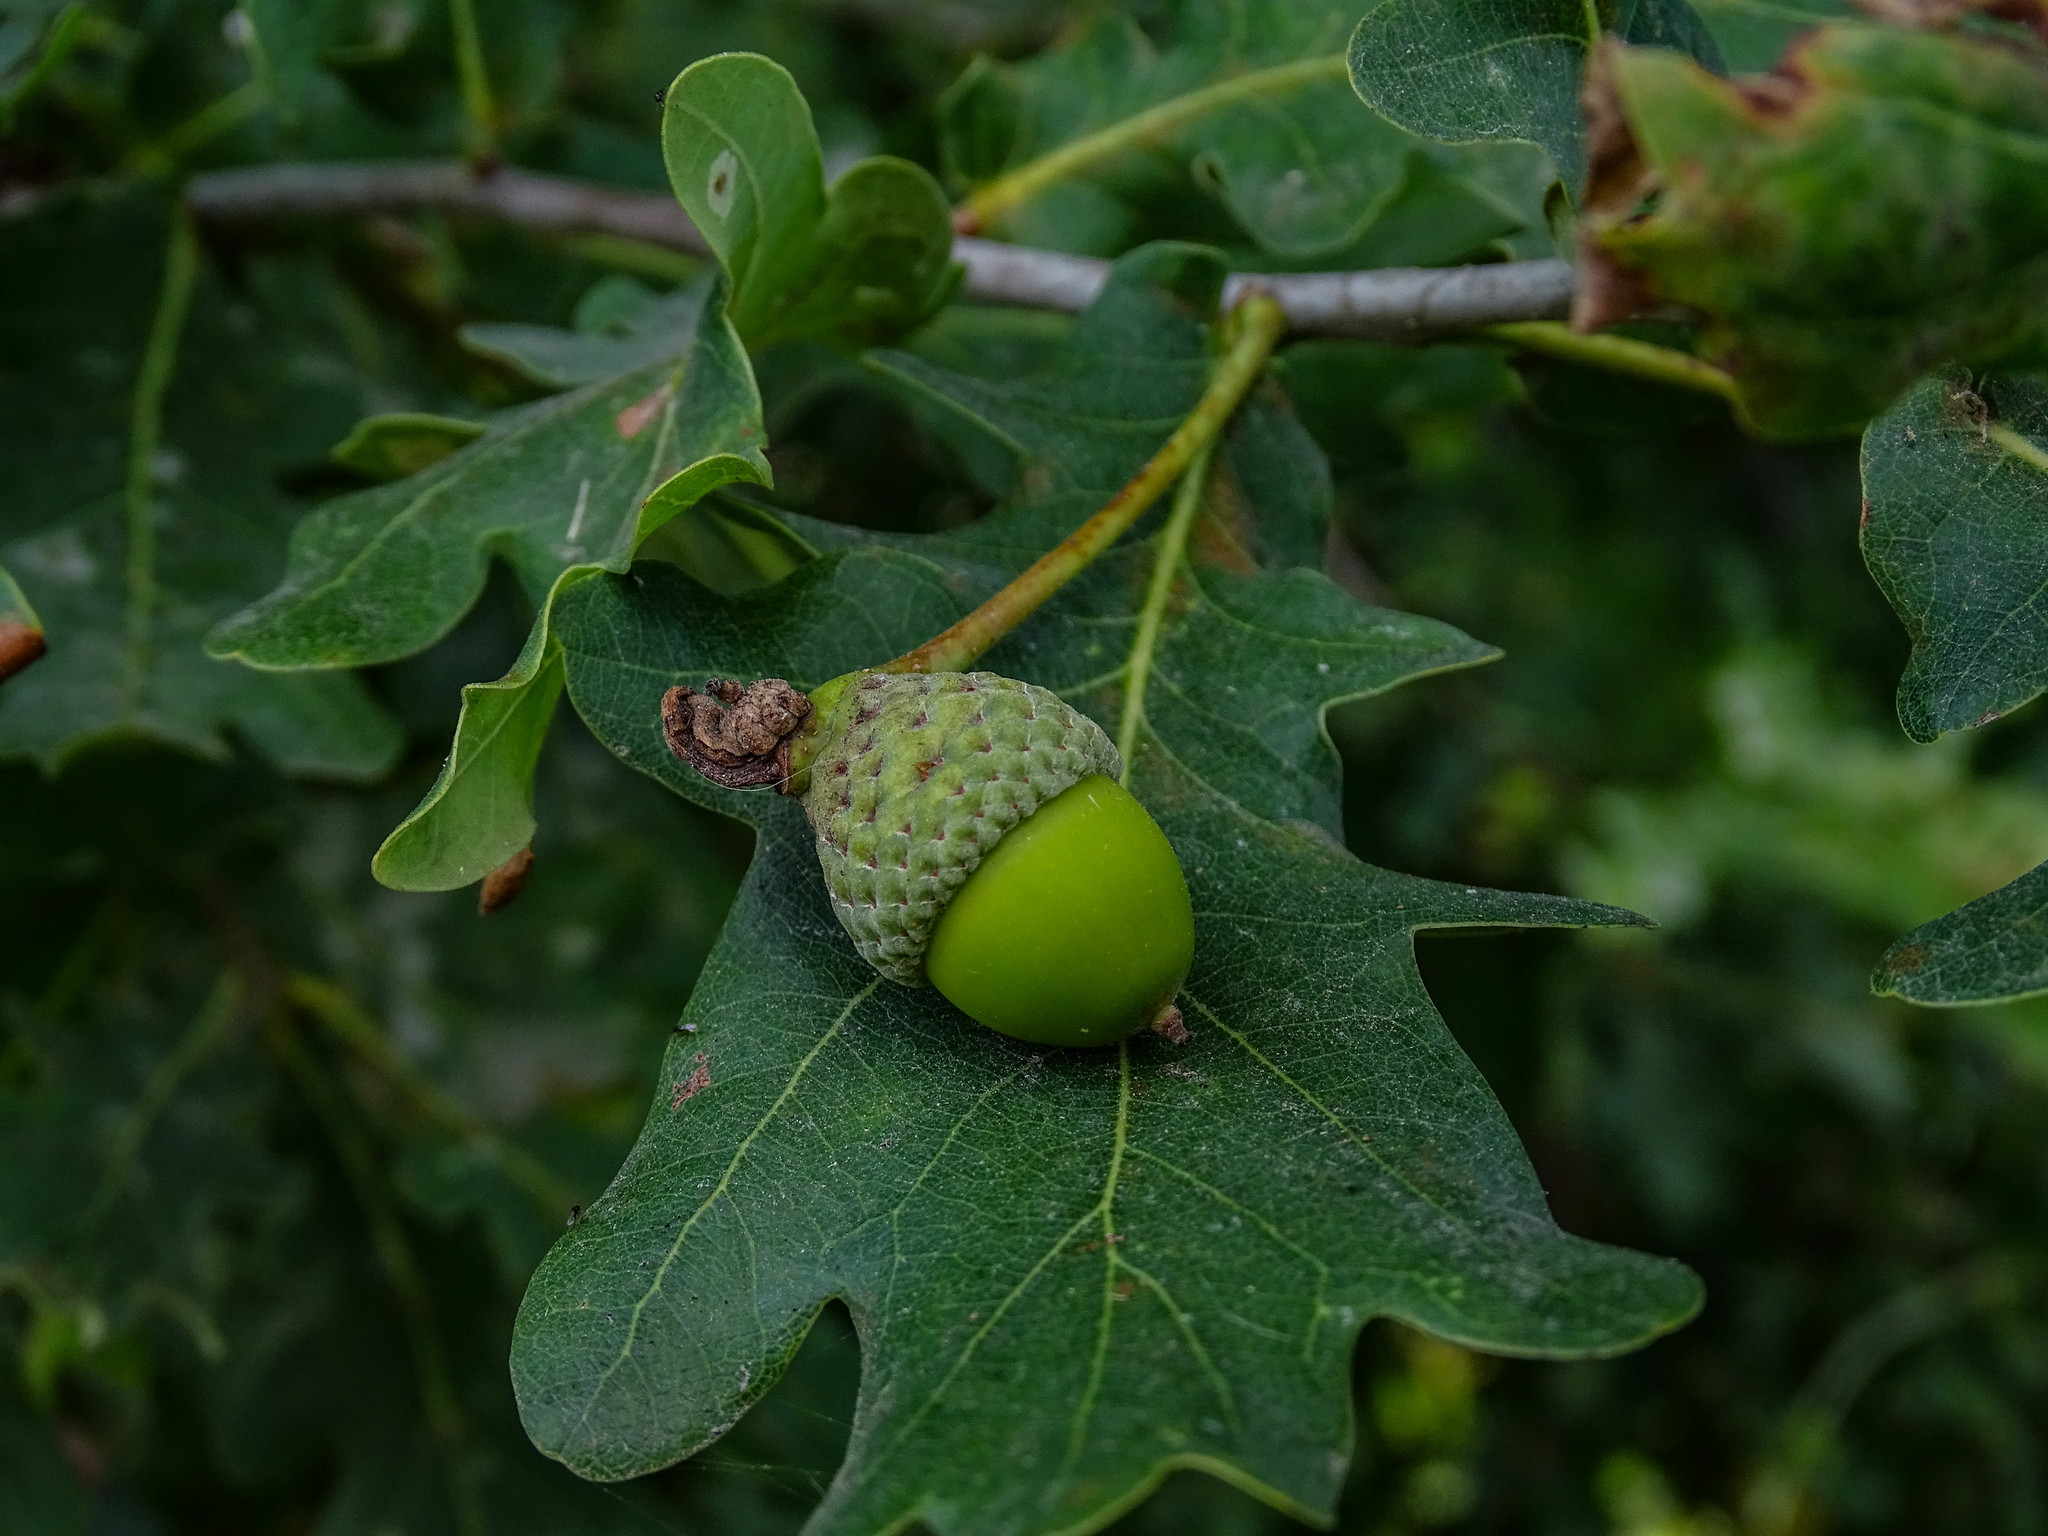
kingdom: Plantae
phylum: Tracheophyta
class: Magnoliopsida
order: Fagales
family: Fagaceae
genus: Quercus
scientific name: Quercus robur
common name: Pedunculate oak
